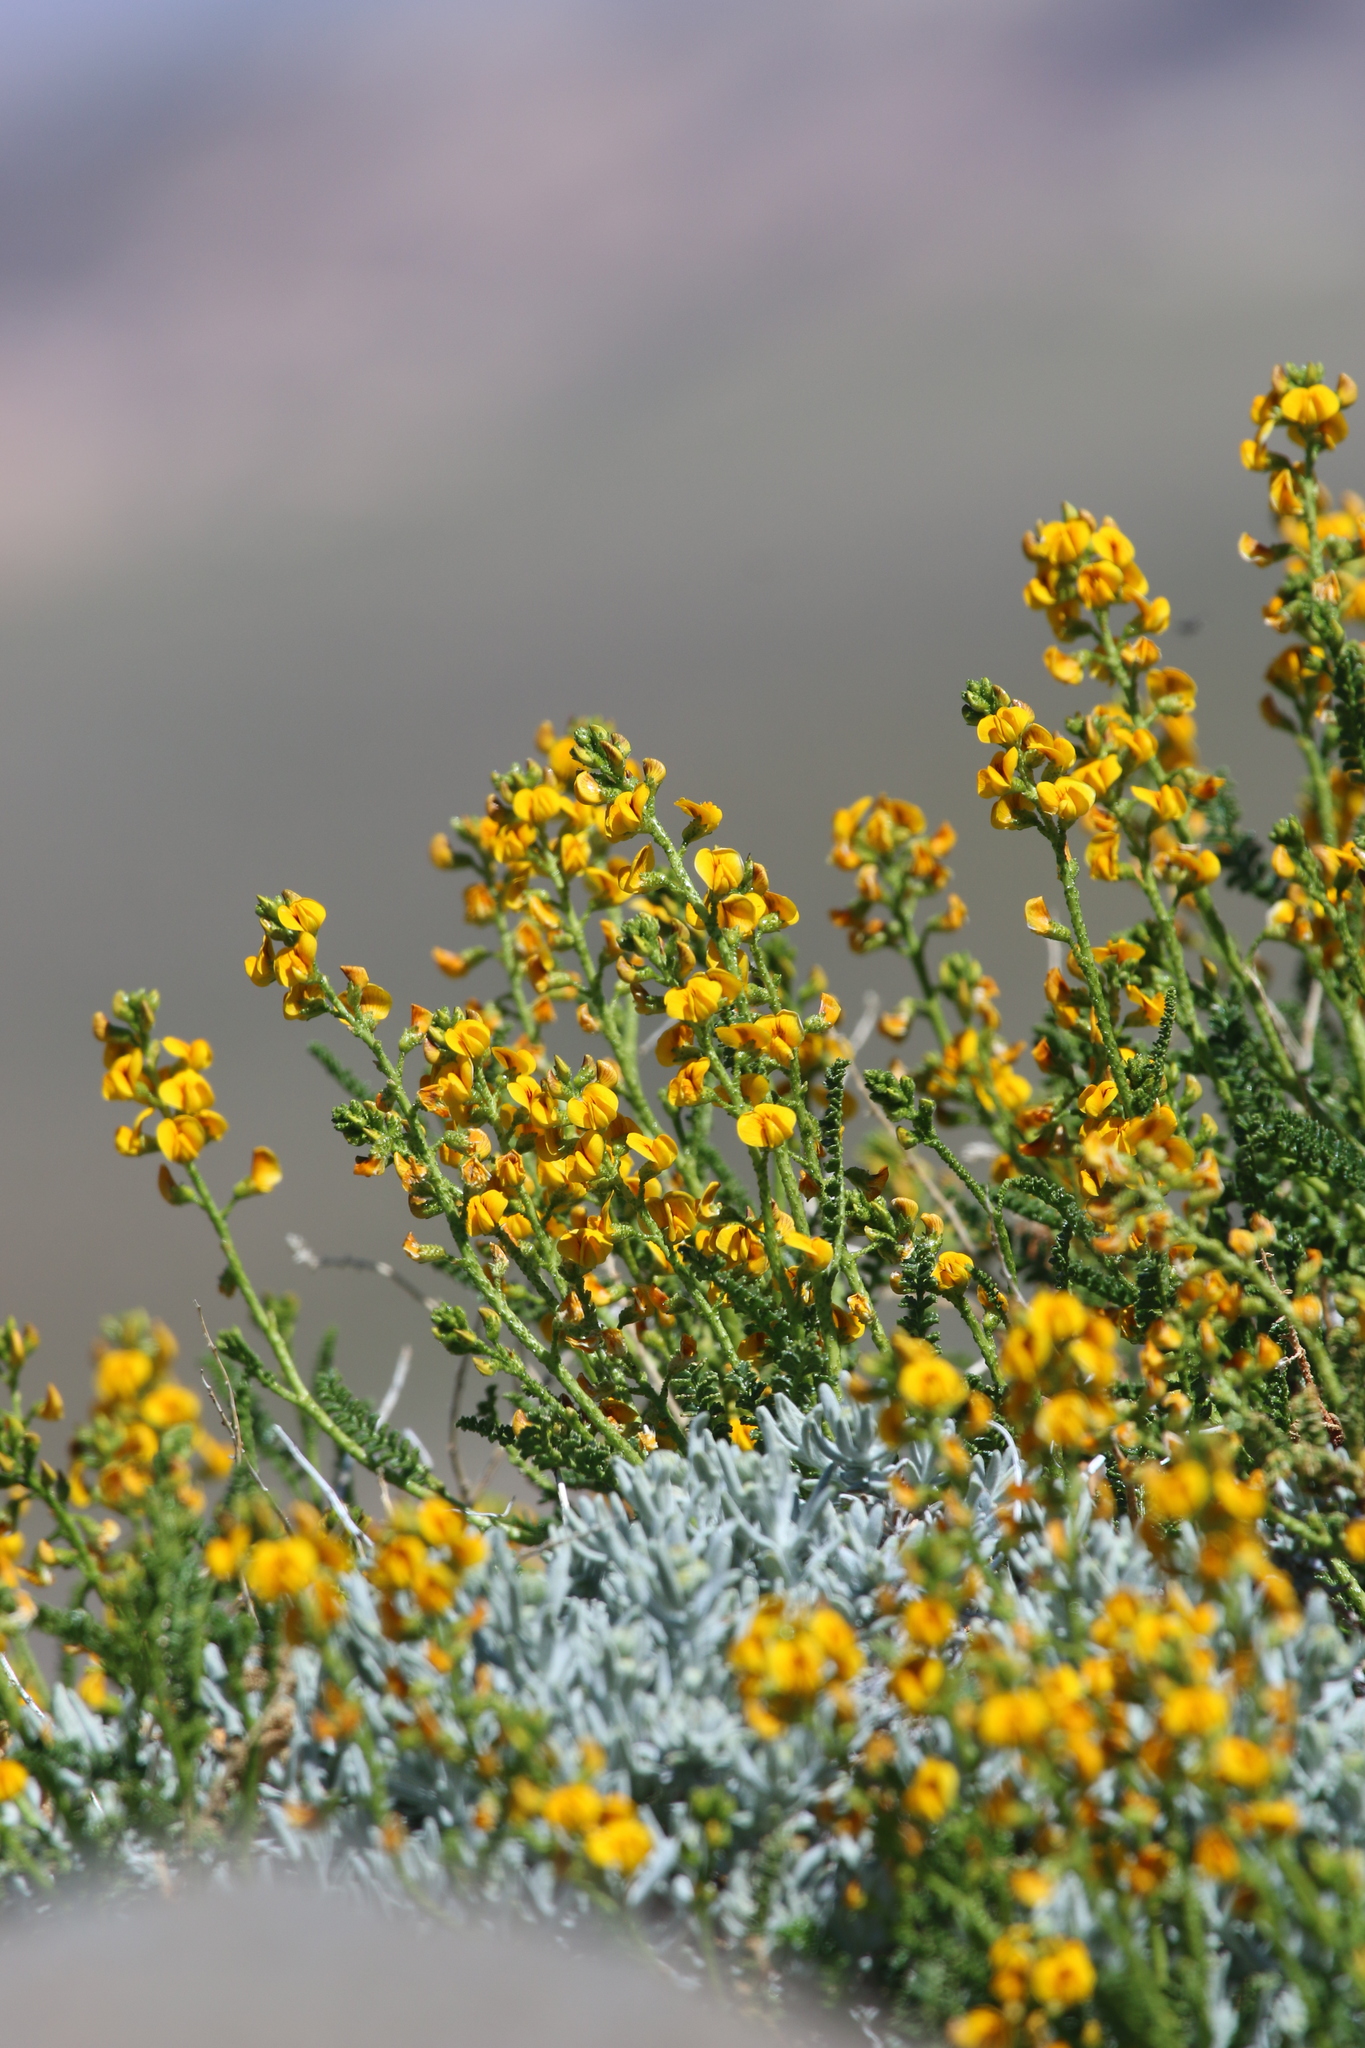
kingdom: Plantae
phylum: Tracheophyta
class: Magnoliopsida
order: Fabales
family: Fabaceae
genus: Adesmia
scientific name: Adesmia boronioides
